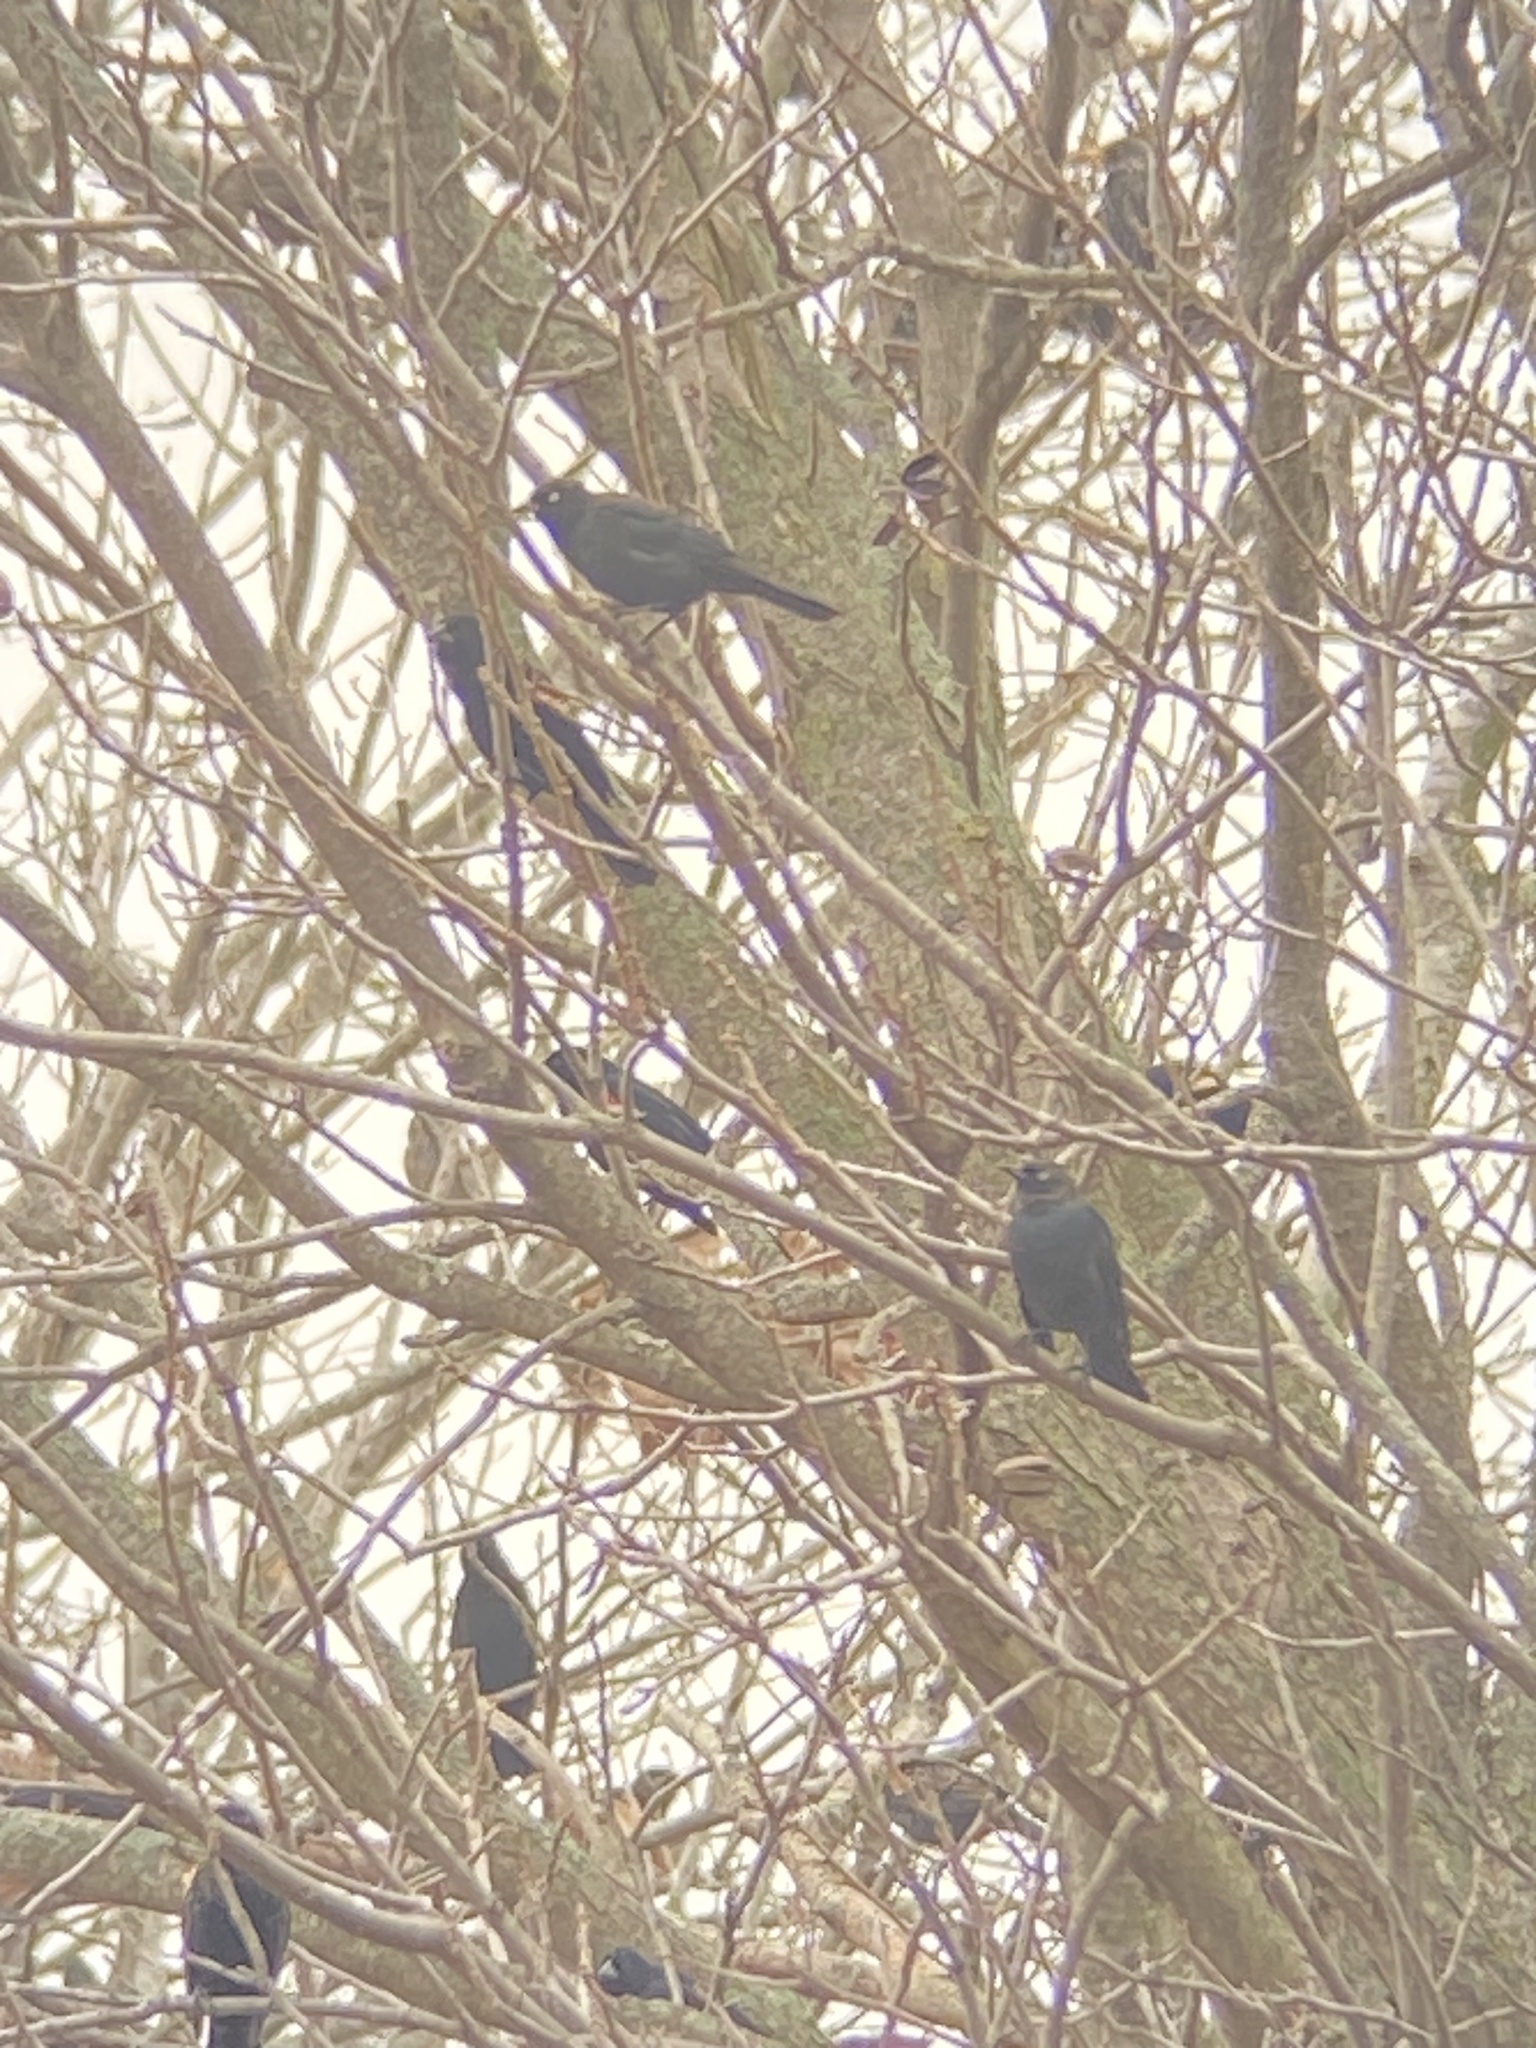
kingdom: Animalia
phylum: Chordata
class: Aves
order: Passeriformes
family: Icteridae
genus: Euphagus
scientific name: Euphagus carolinus
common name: Rusty blackbird
